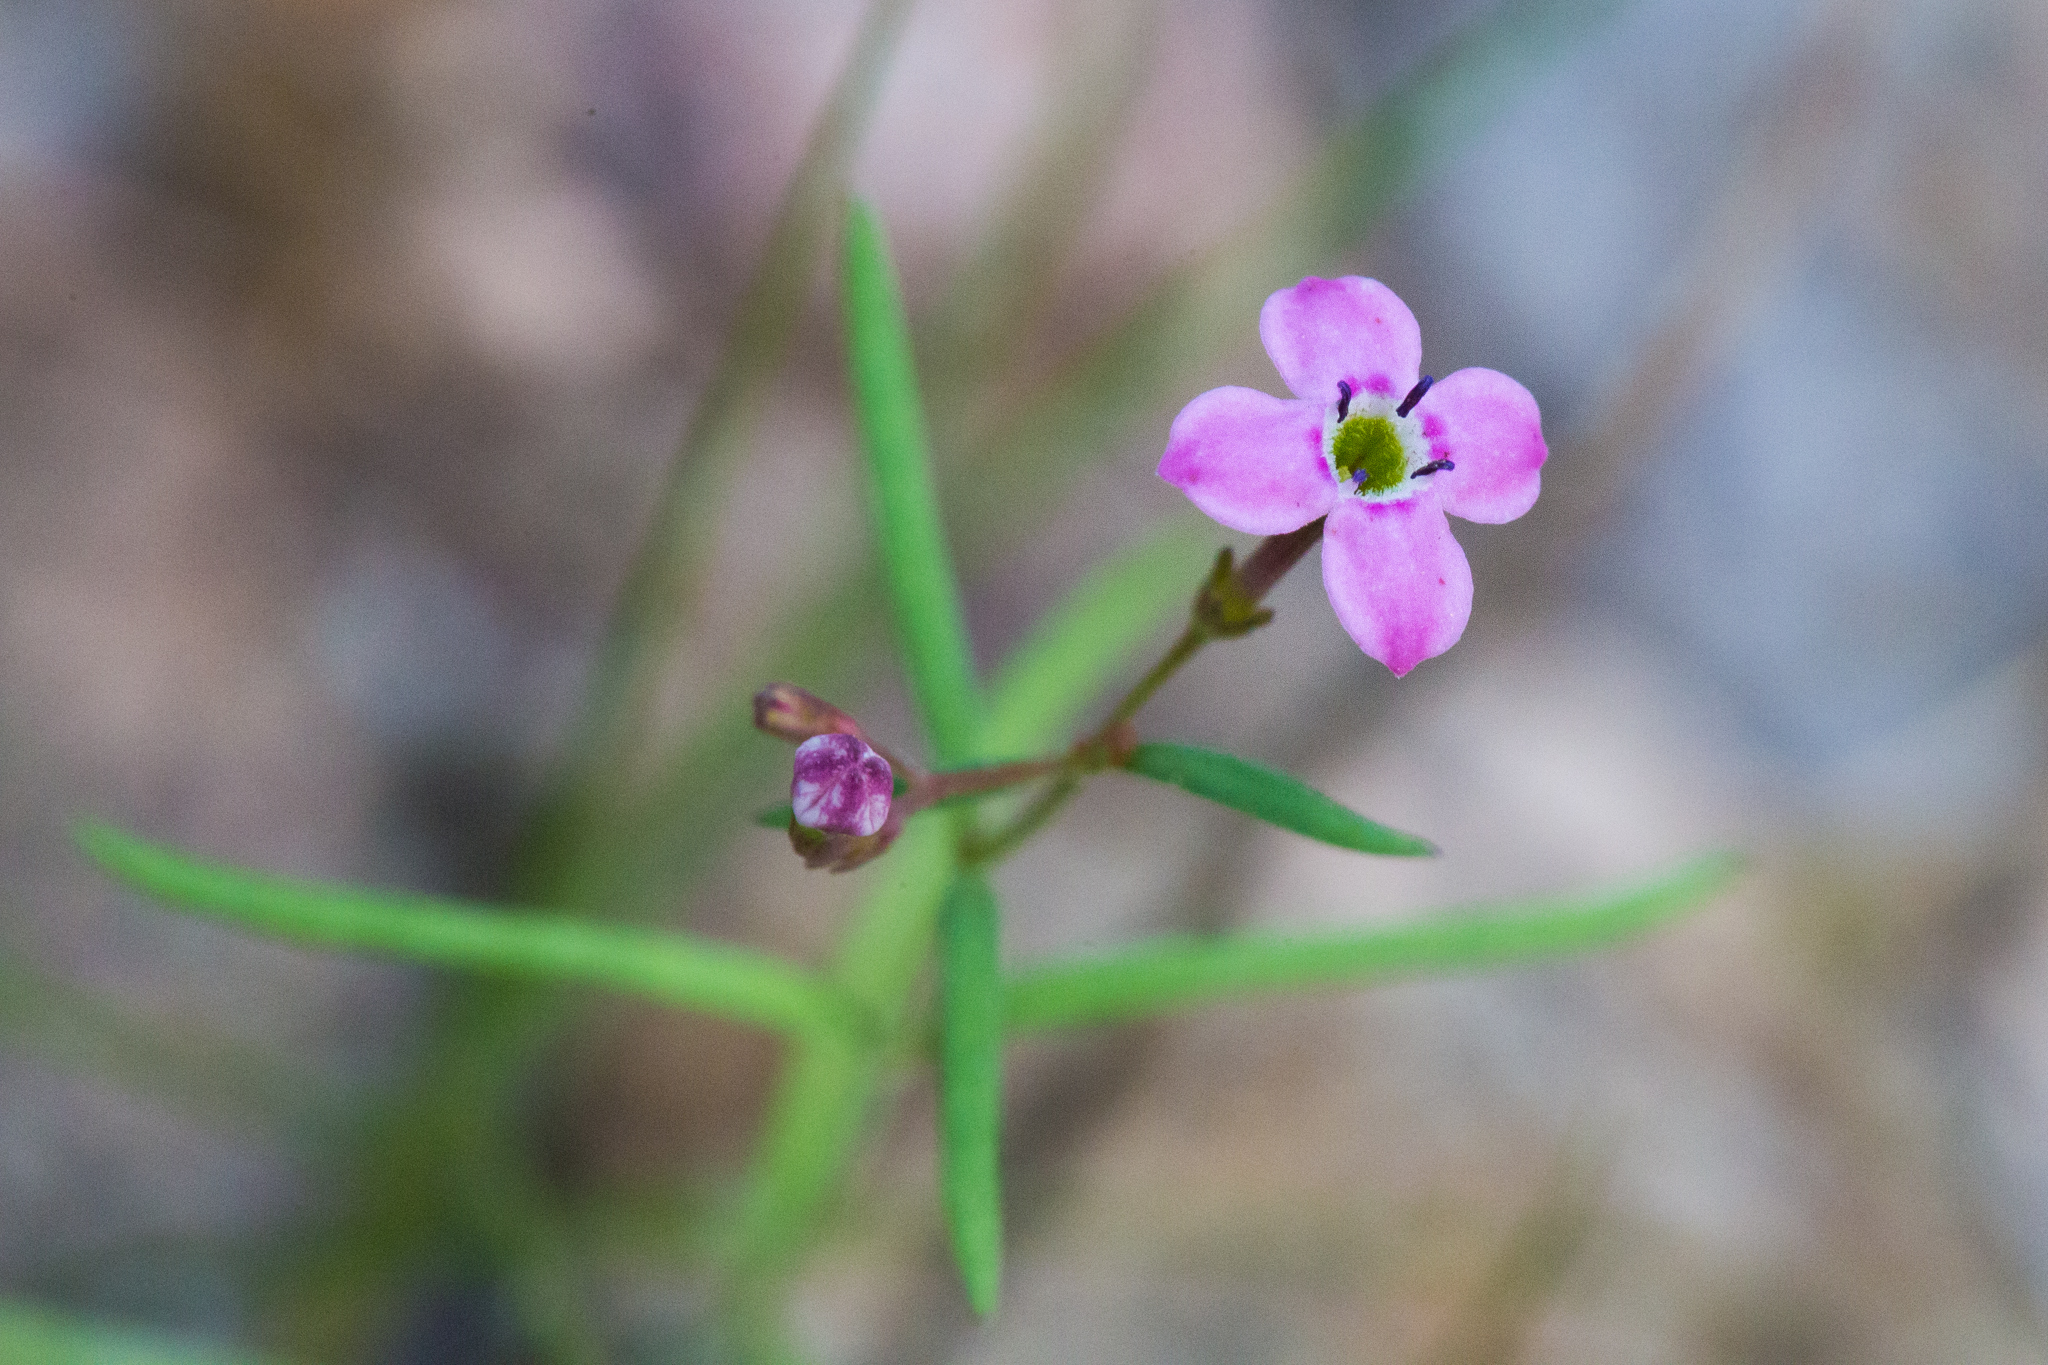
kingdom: Plantae
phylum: Tracheophyta
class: Magnoliopsida
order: Gentianales
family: Rubiaceae
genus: Stenotis
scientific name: Stenotis asperuloides
